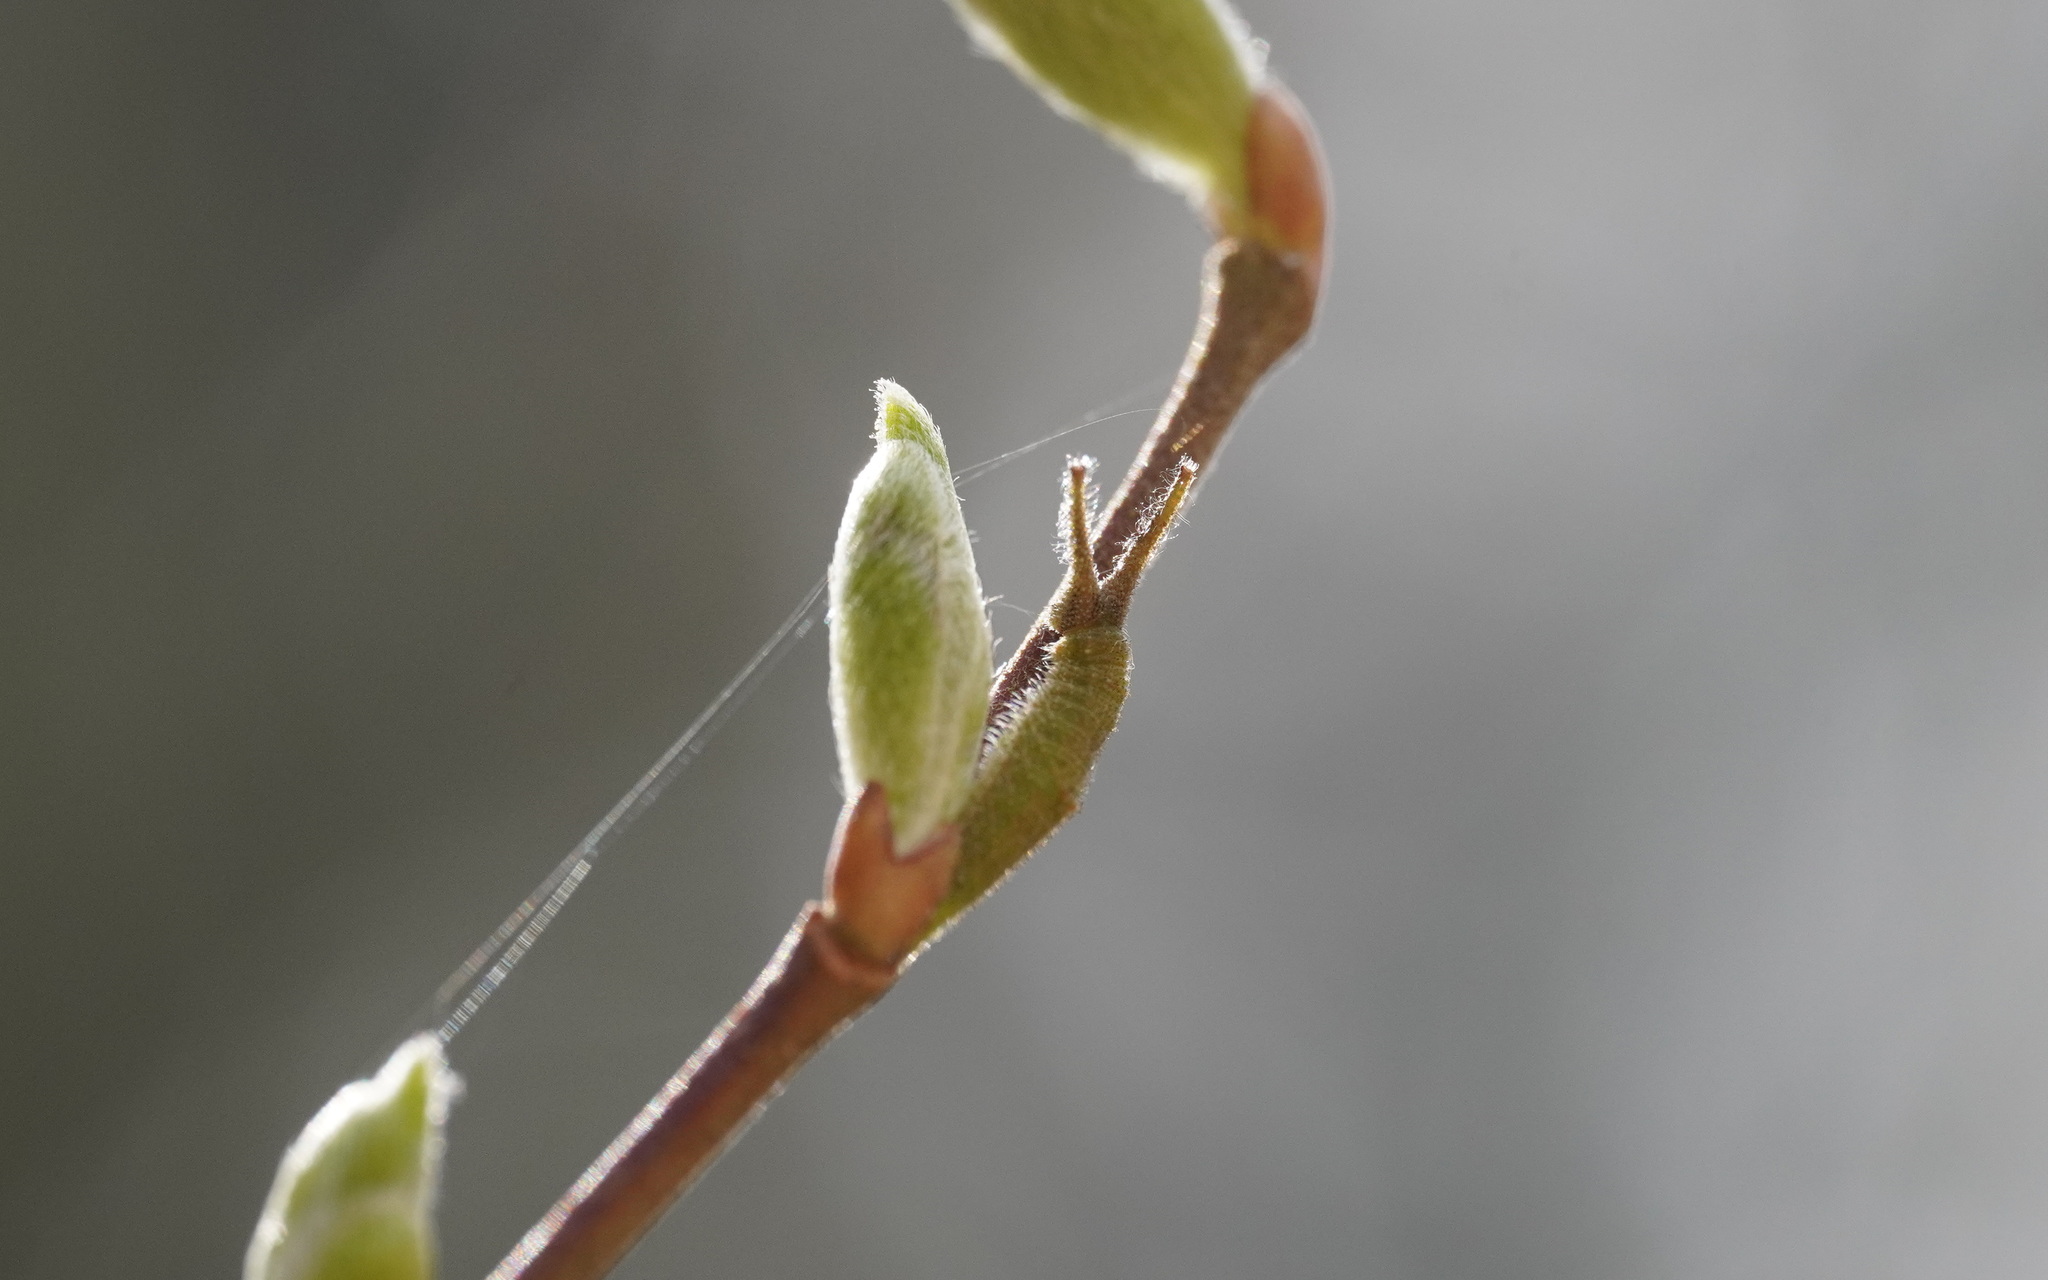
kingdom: Animalia
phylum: Arthropoda
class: Insecta
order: Lepidoptera
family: Nymphalidae
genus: Apatura
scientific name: Apatura iris
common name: Purple emperor
